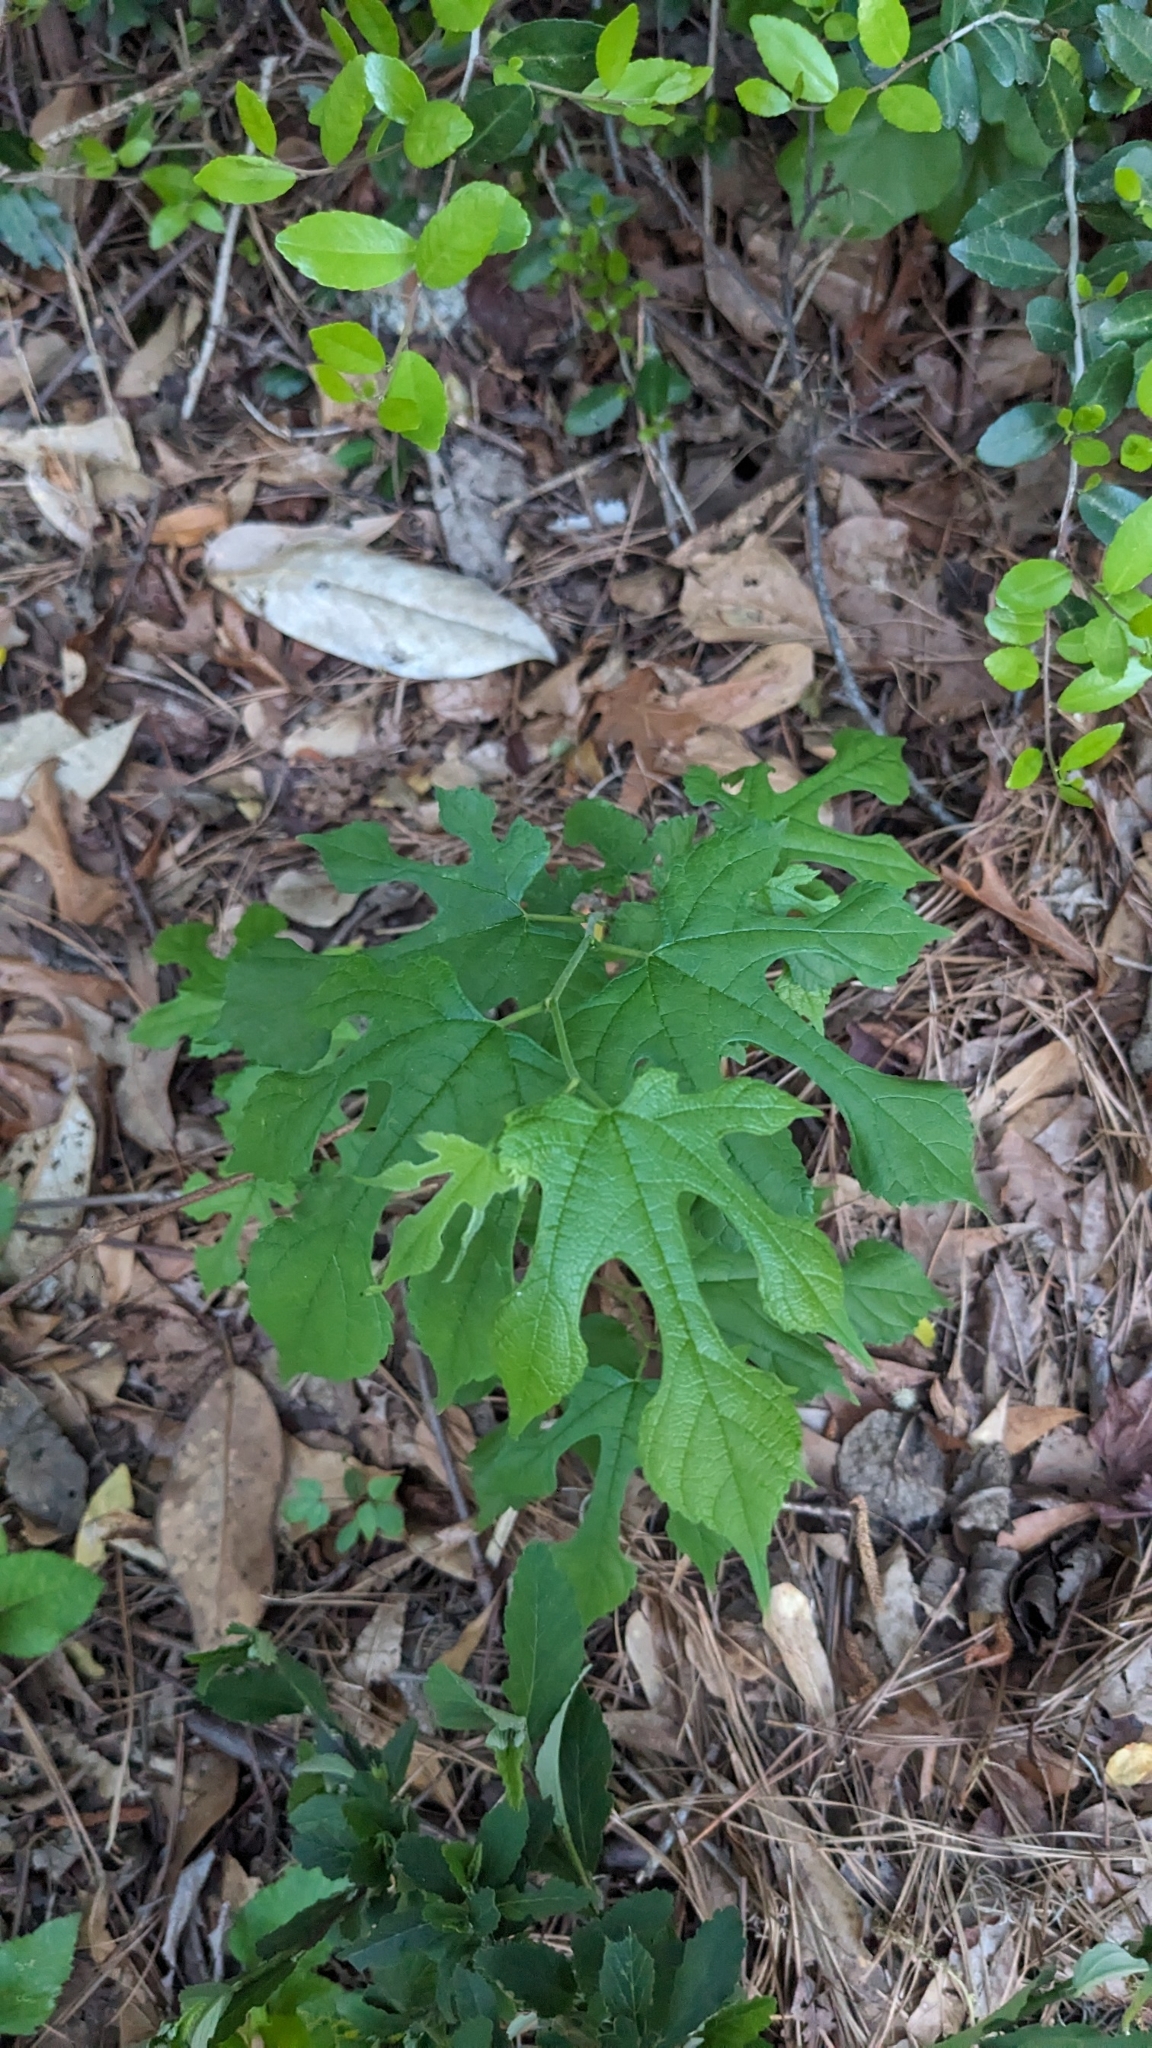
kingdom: Plantae
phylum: Tracheophyta
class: Magnoliopsida
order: Rosales
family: Moraceae
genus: Morus
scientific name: Morus rubra
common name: Red mulberry
